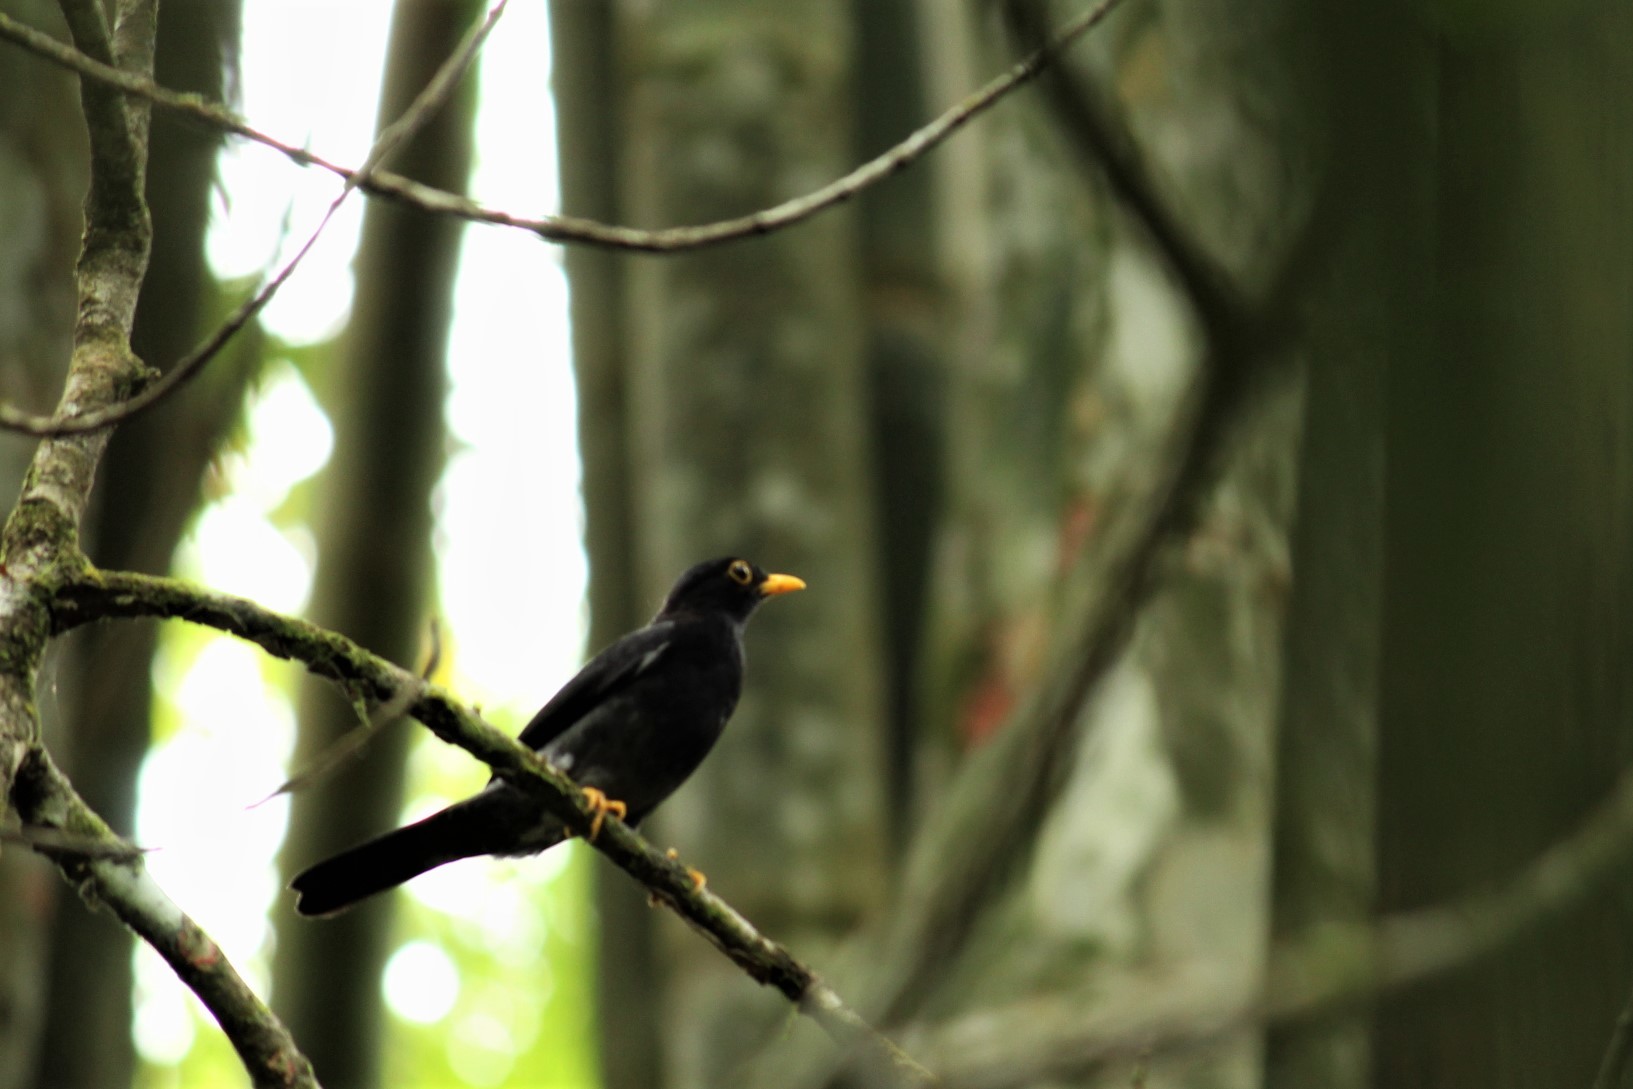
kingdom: Animalia
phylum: Chordata
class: Aves
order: Passeriformes
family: Turdidae
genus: Turdus
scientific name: Turdus flavipes
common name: Yellow-legged thrush
